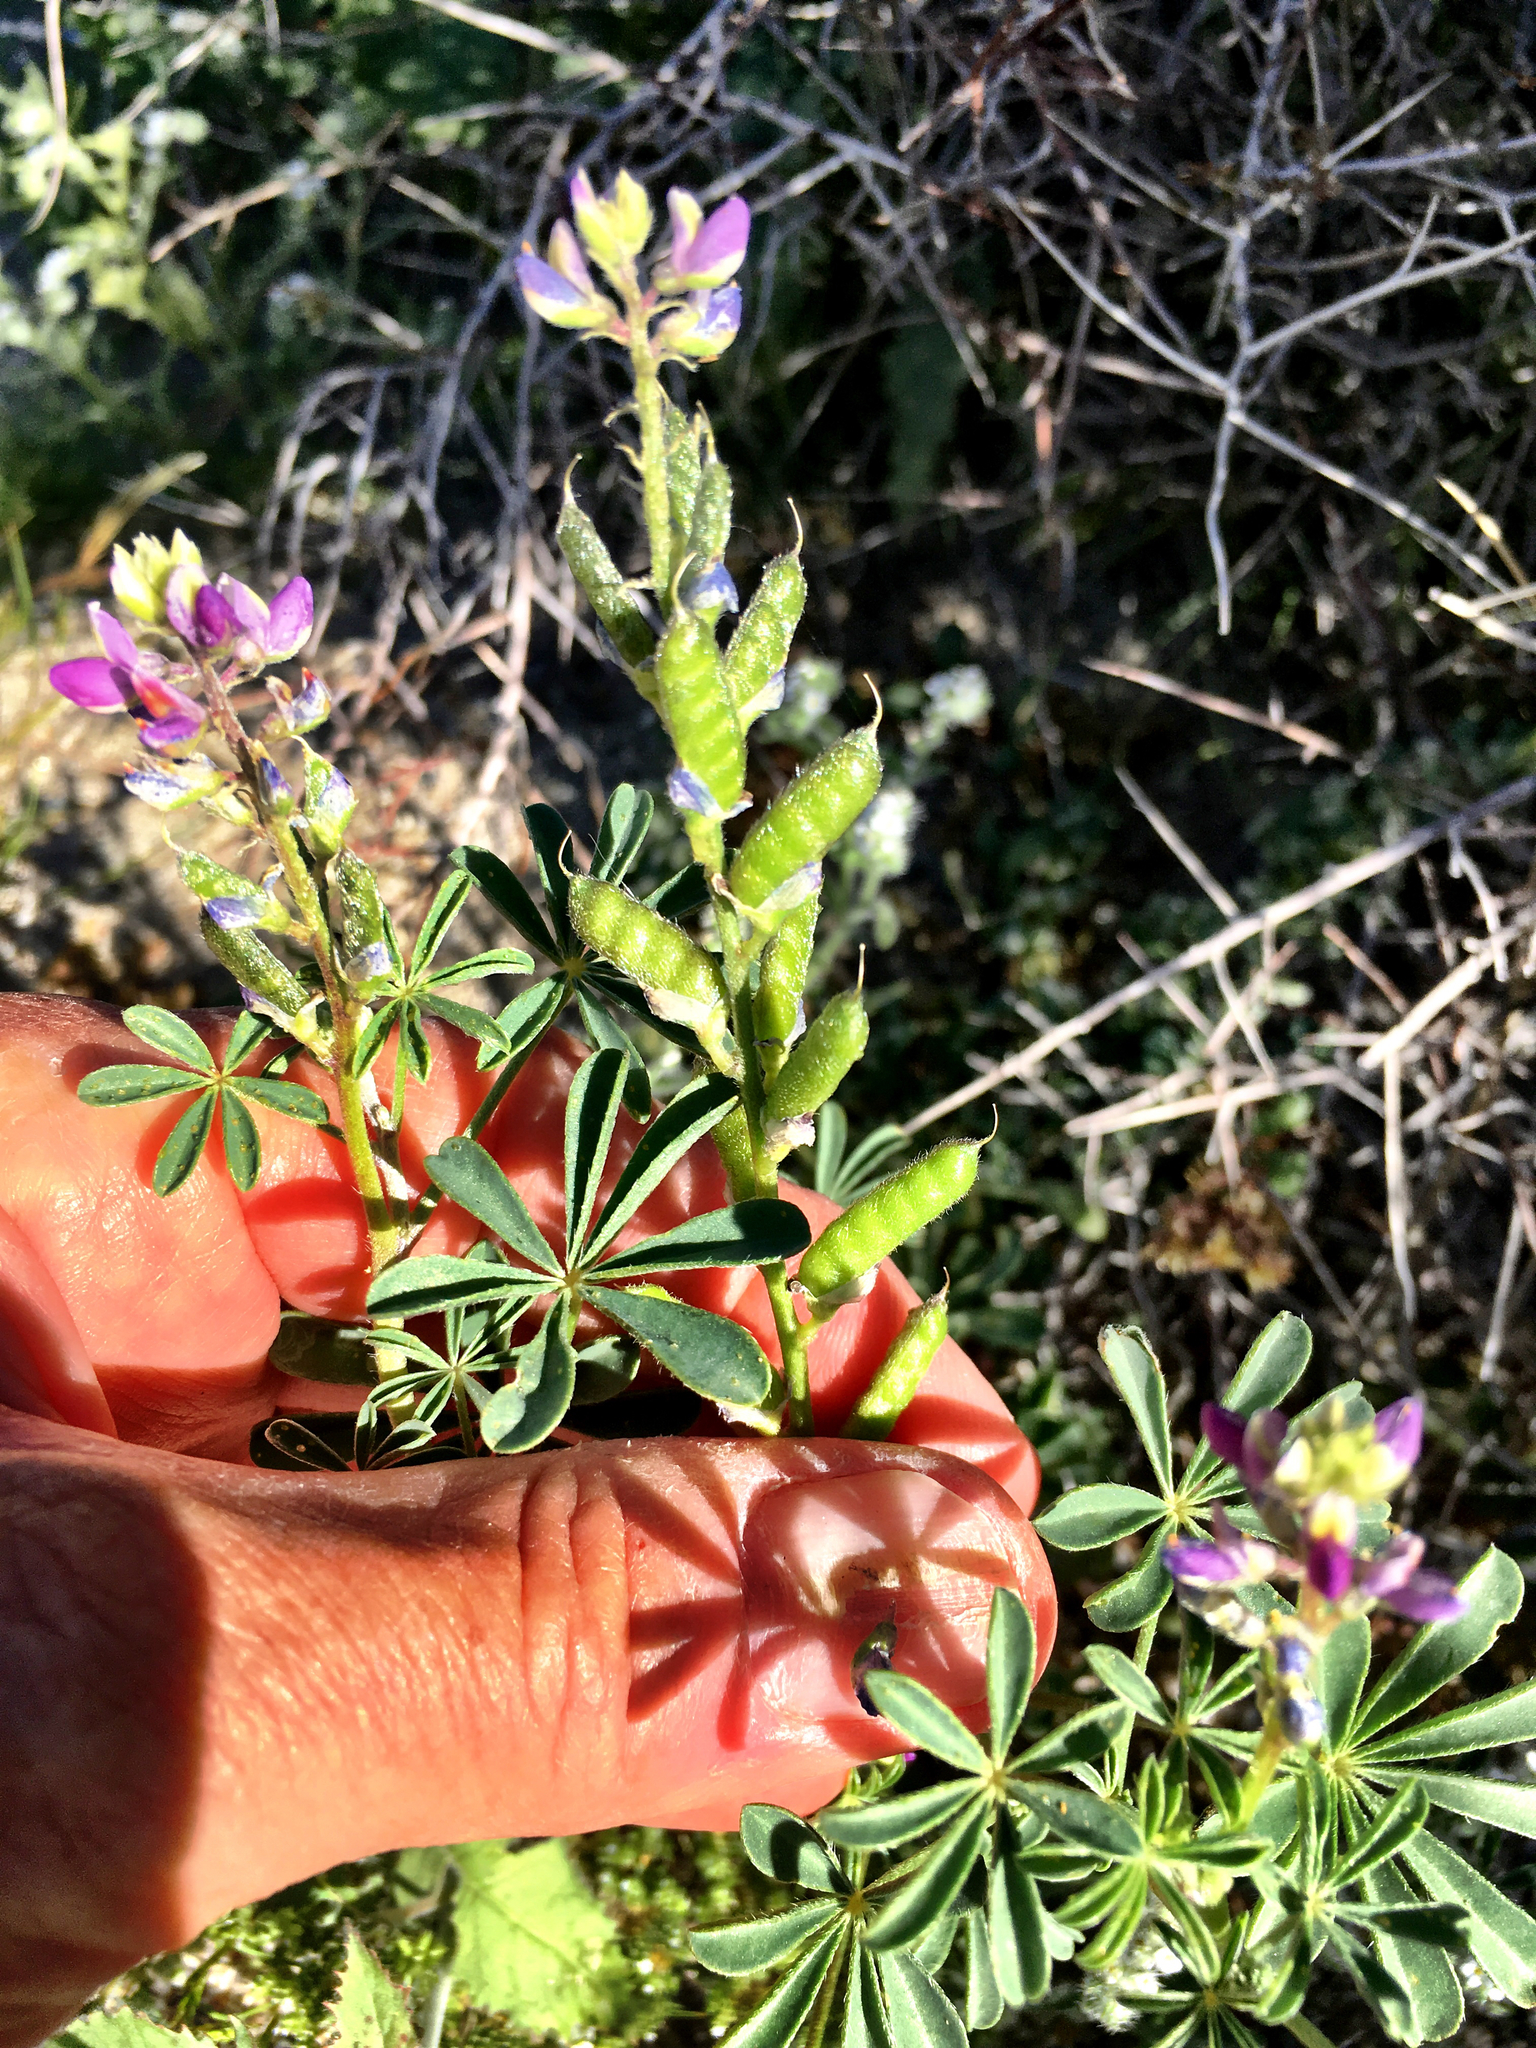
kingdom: Plantae
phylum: Tracheophyta
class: Magnoliopsida
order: Fabales
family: Fabaceae
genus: Lupinus
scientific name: Lupinus arizonicus
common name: Arizona lupine
